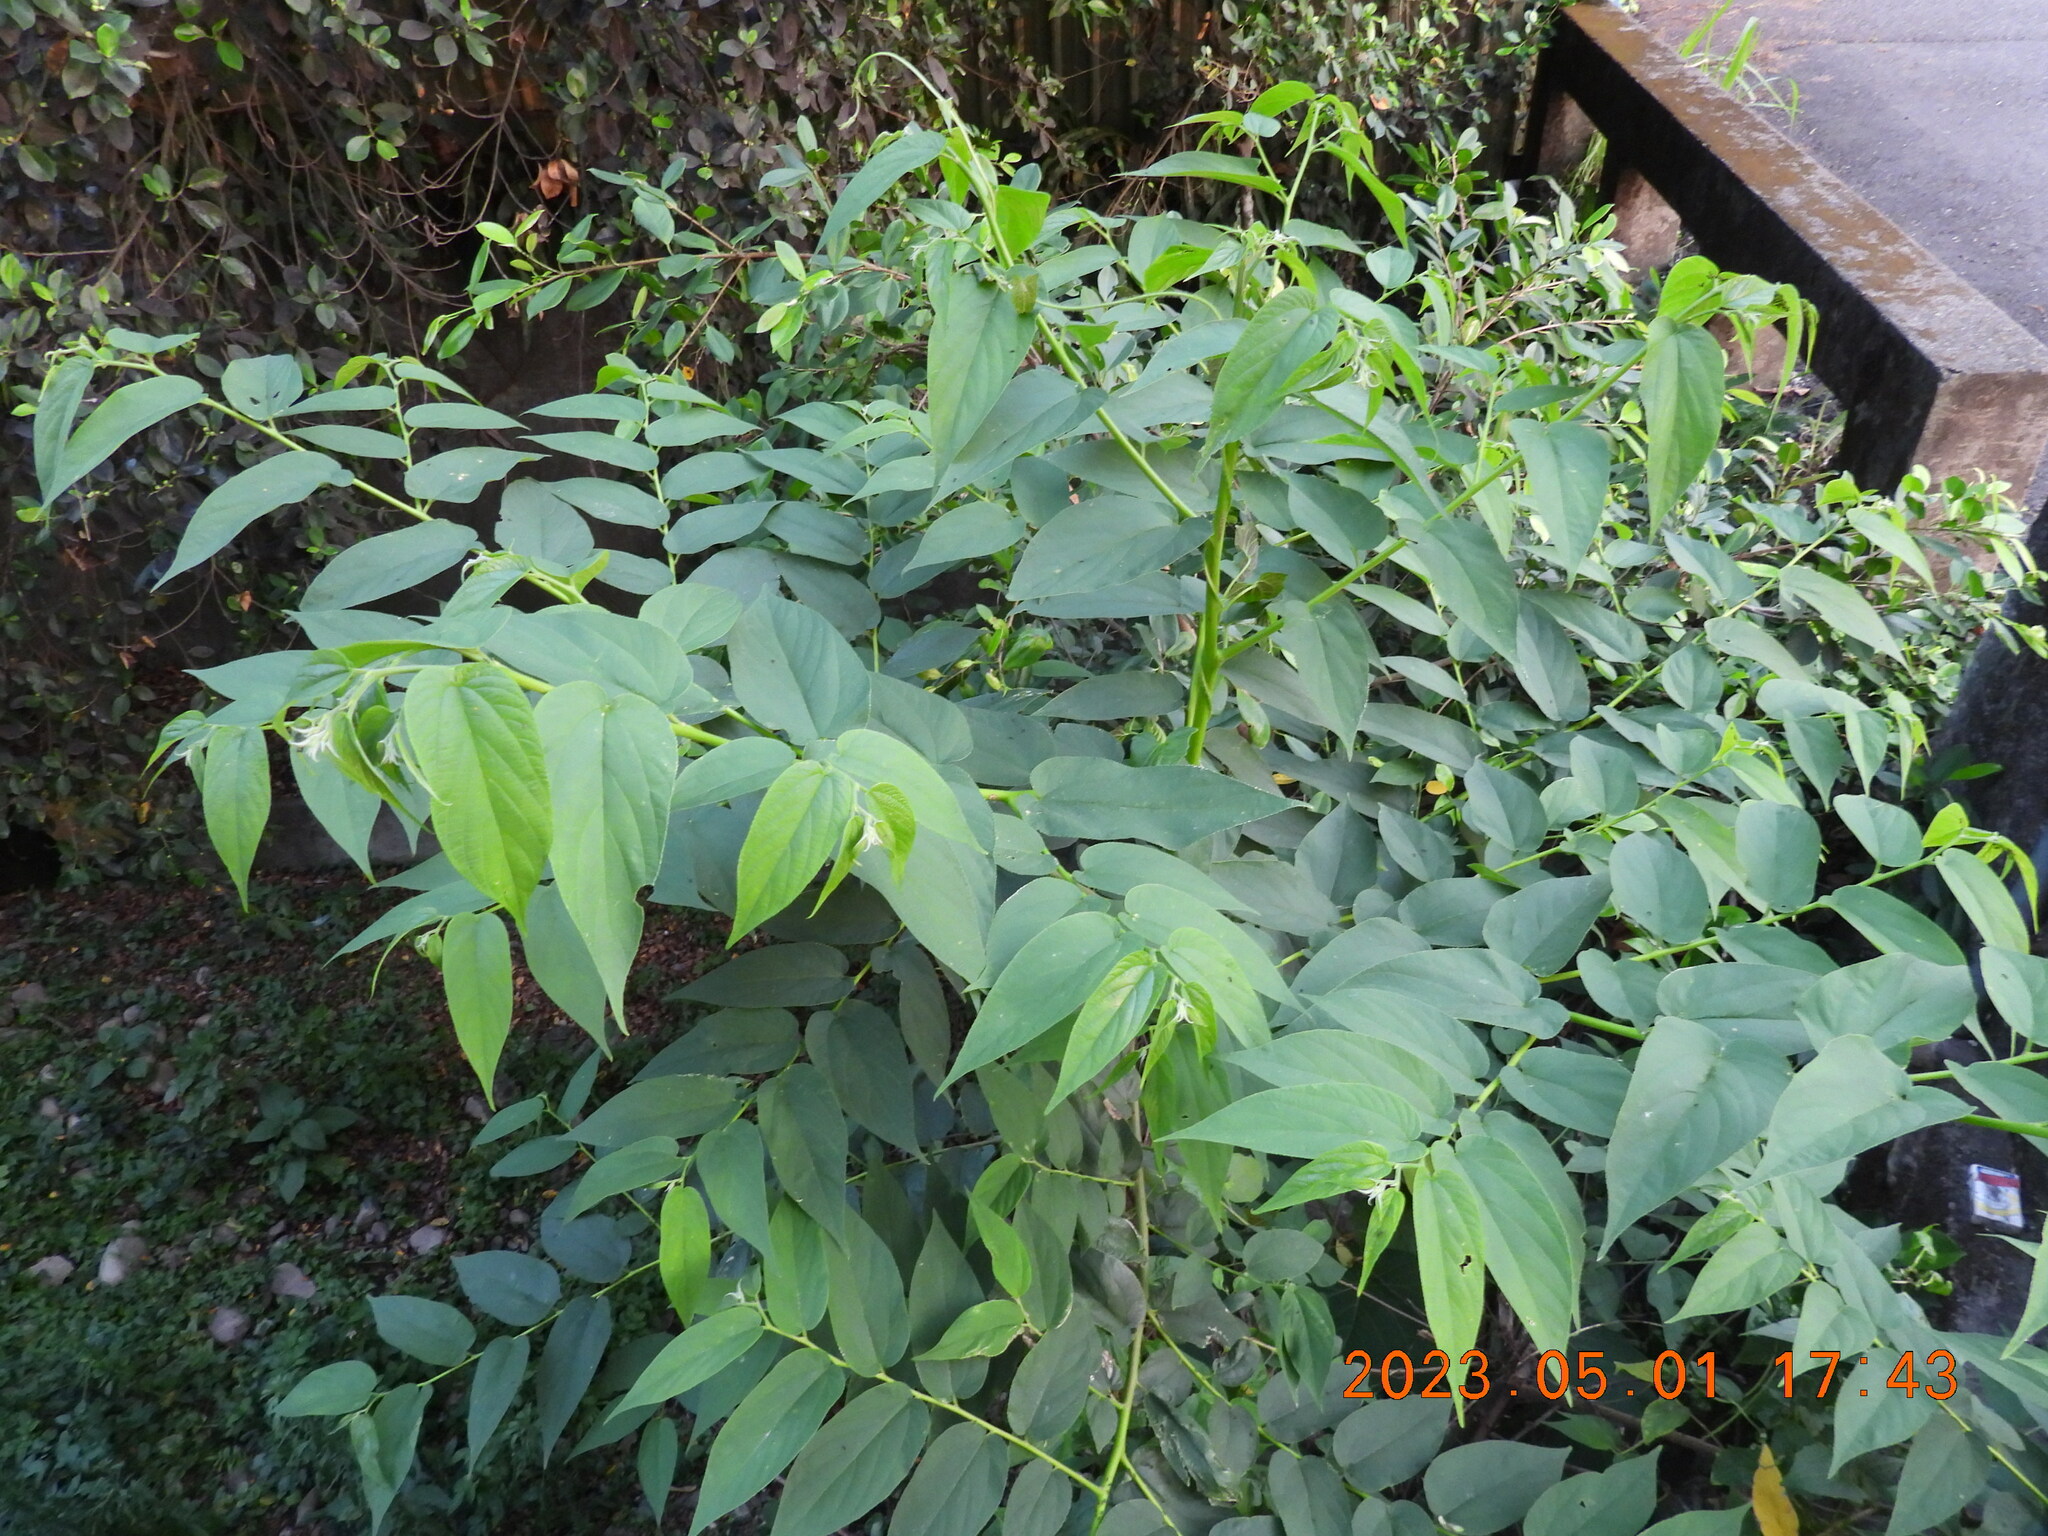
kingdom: Plantae
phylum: Tracheophyta
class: Magnoliopsida
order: Rosales
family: Cannabaceae
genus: Trema
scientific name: Trema orientale
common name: Indian charcoal tree
